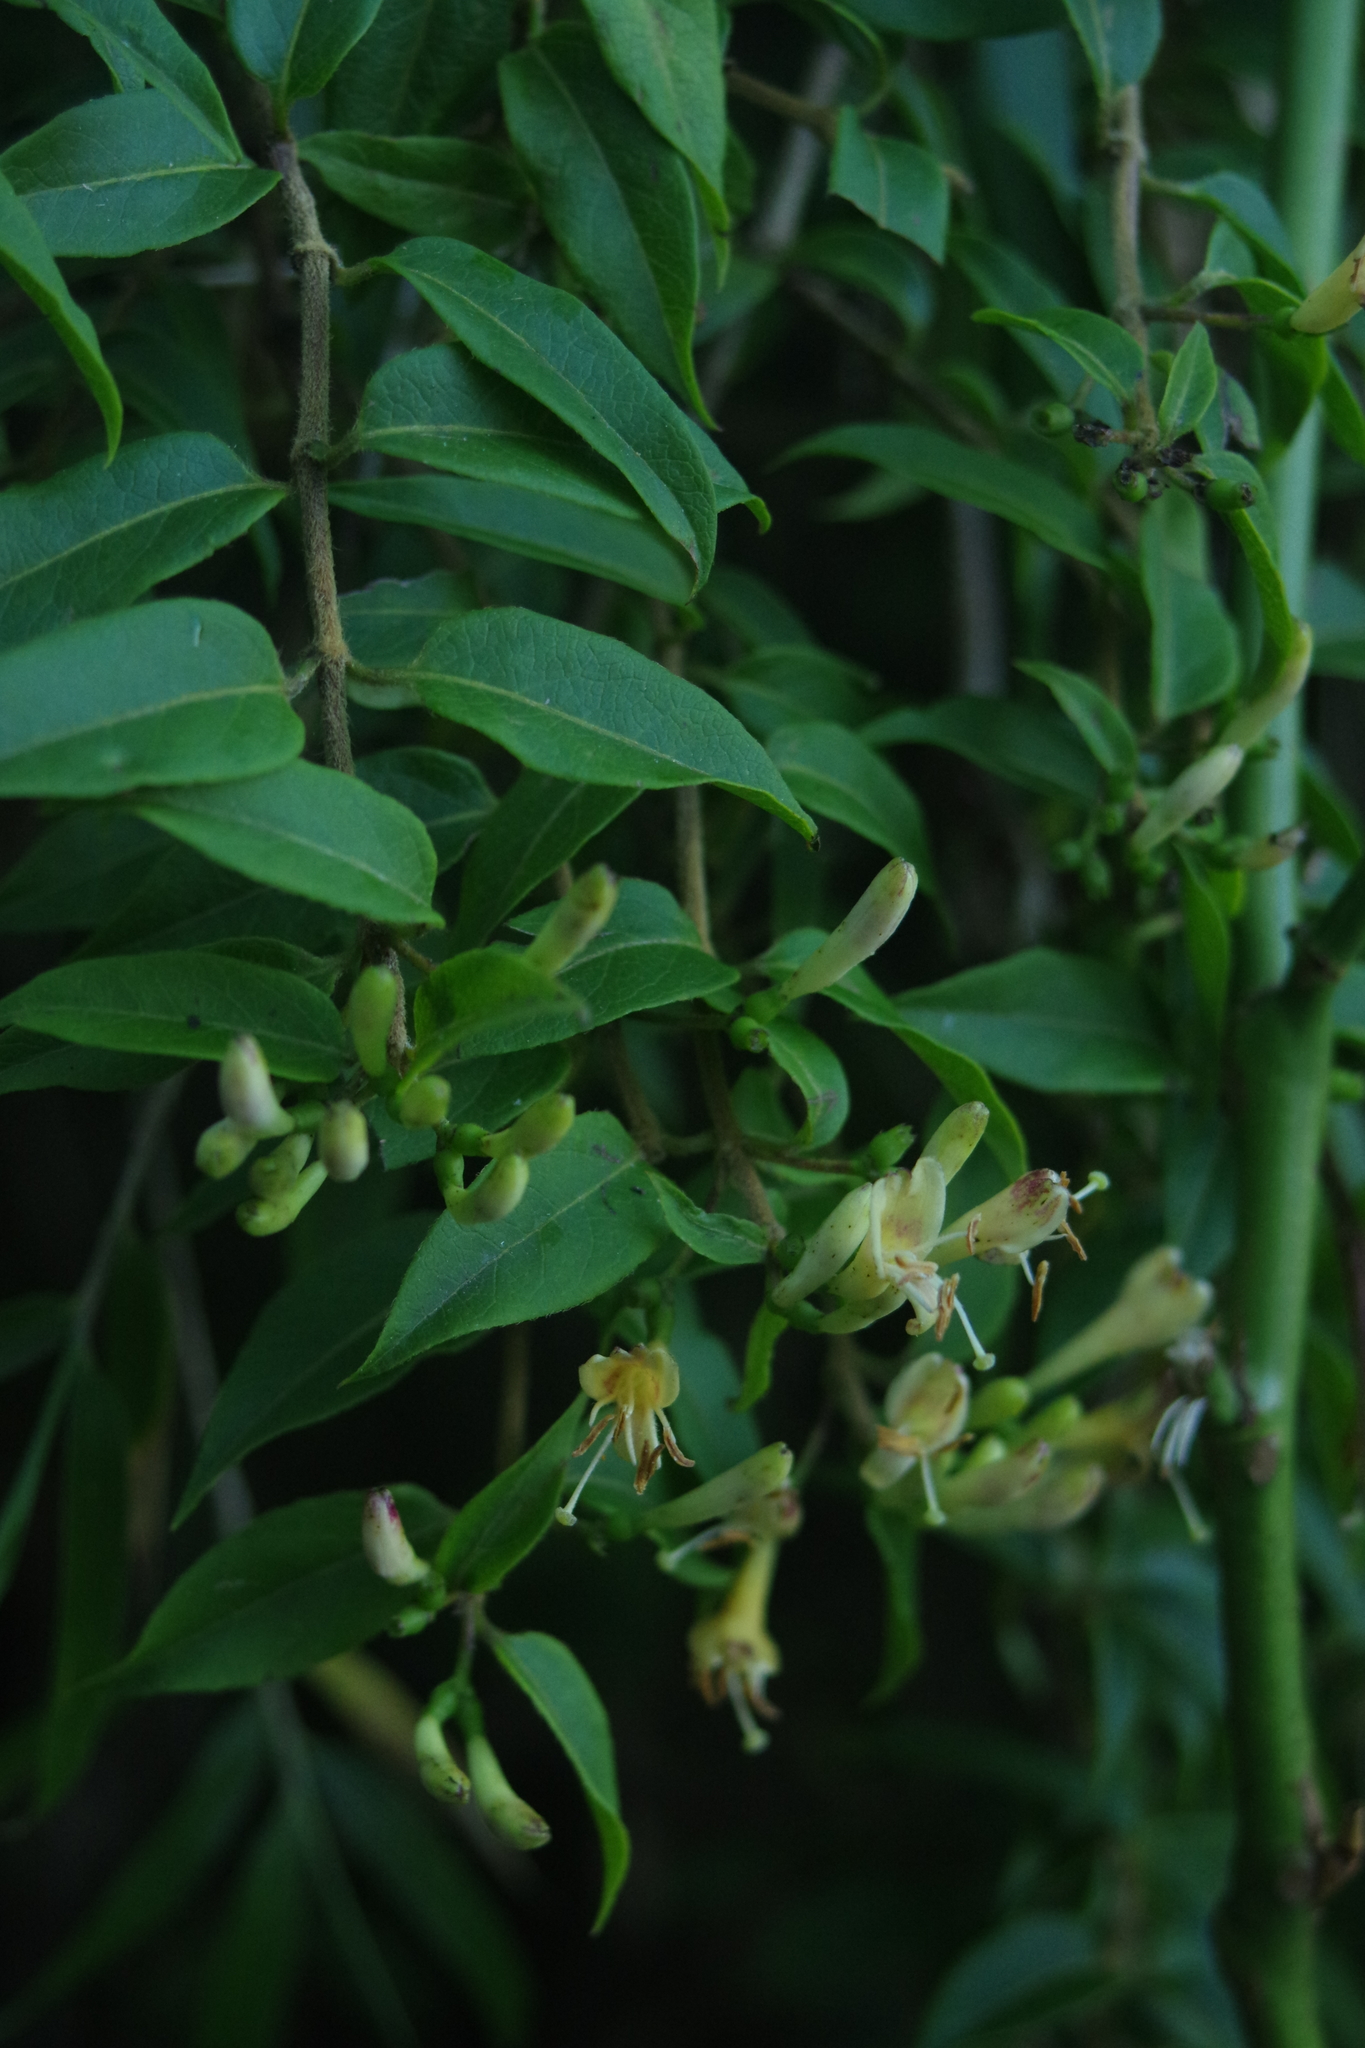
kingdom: Plantae
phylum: Tracheophyta
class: Magnoliopsida
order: Dipsacales
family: Caprifoliaceae
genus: Lonicera
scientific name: Lonicera acuminata
